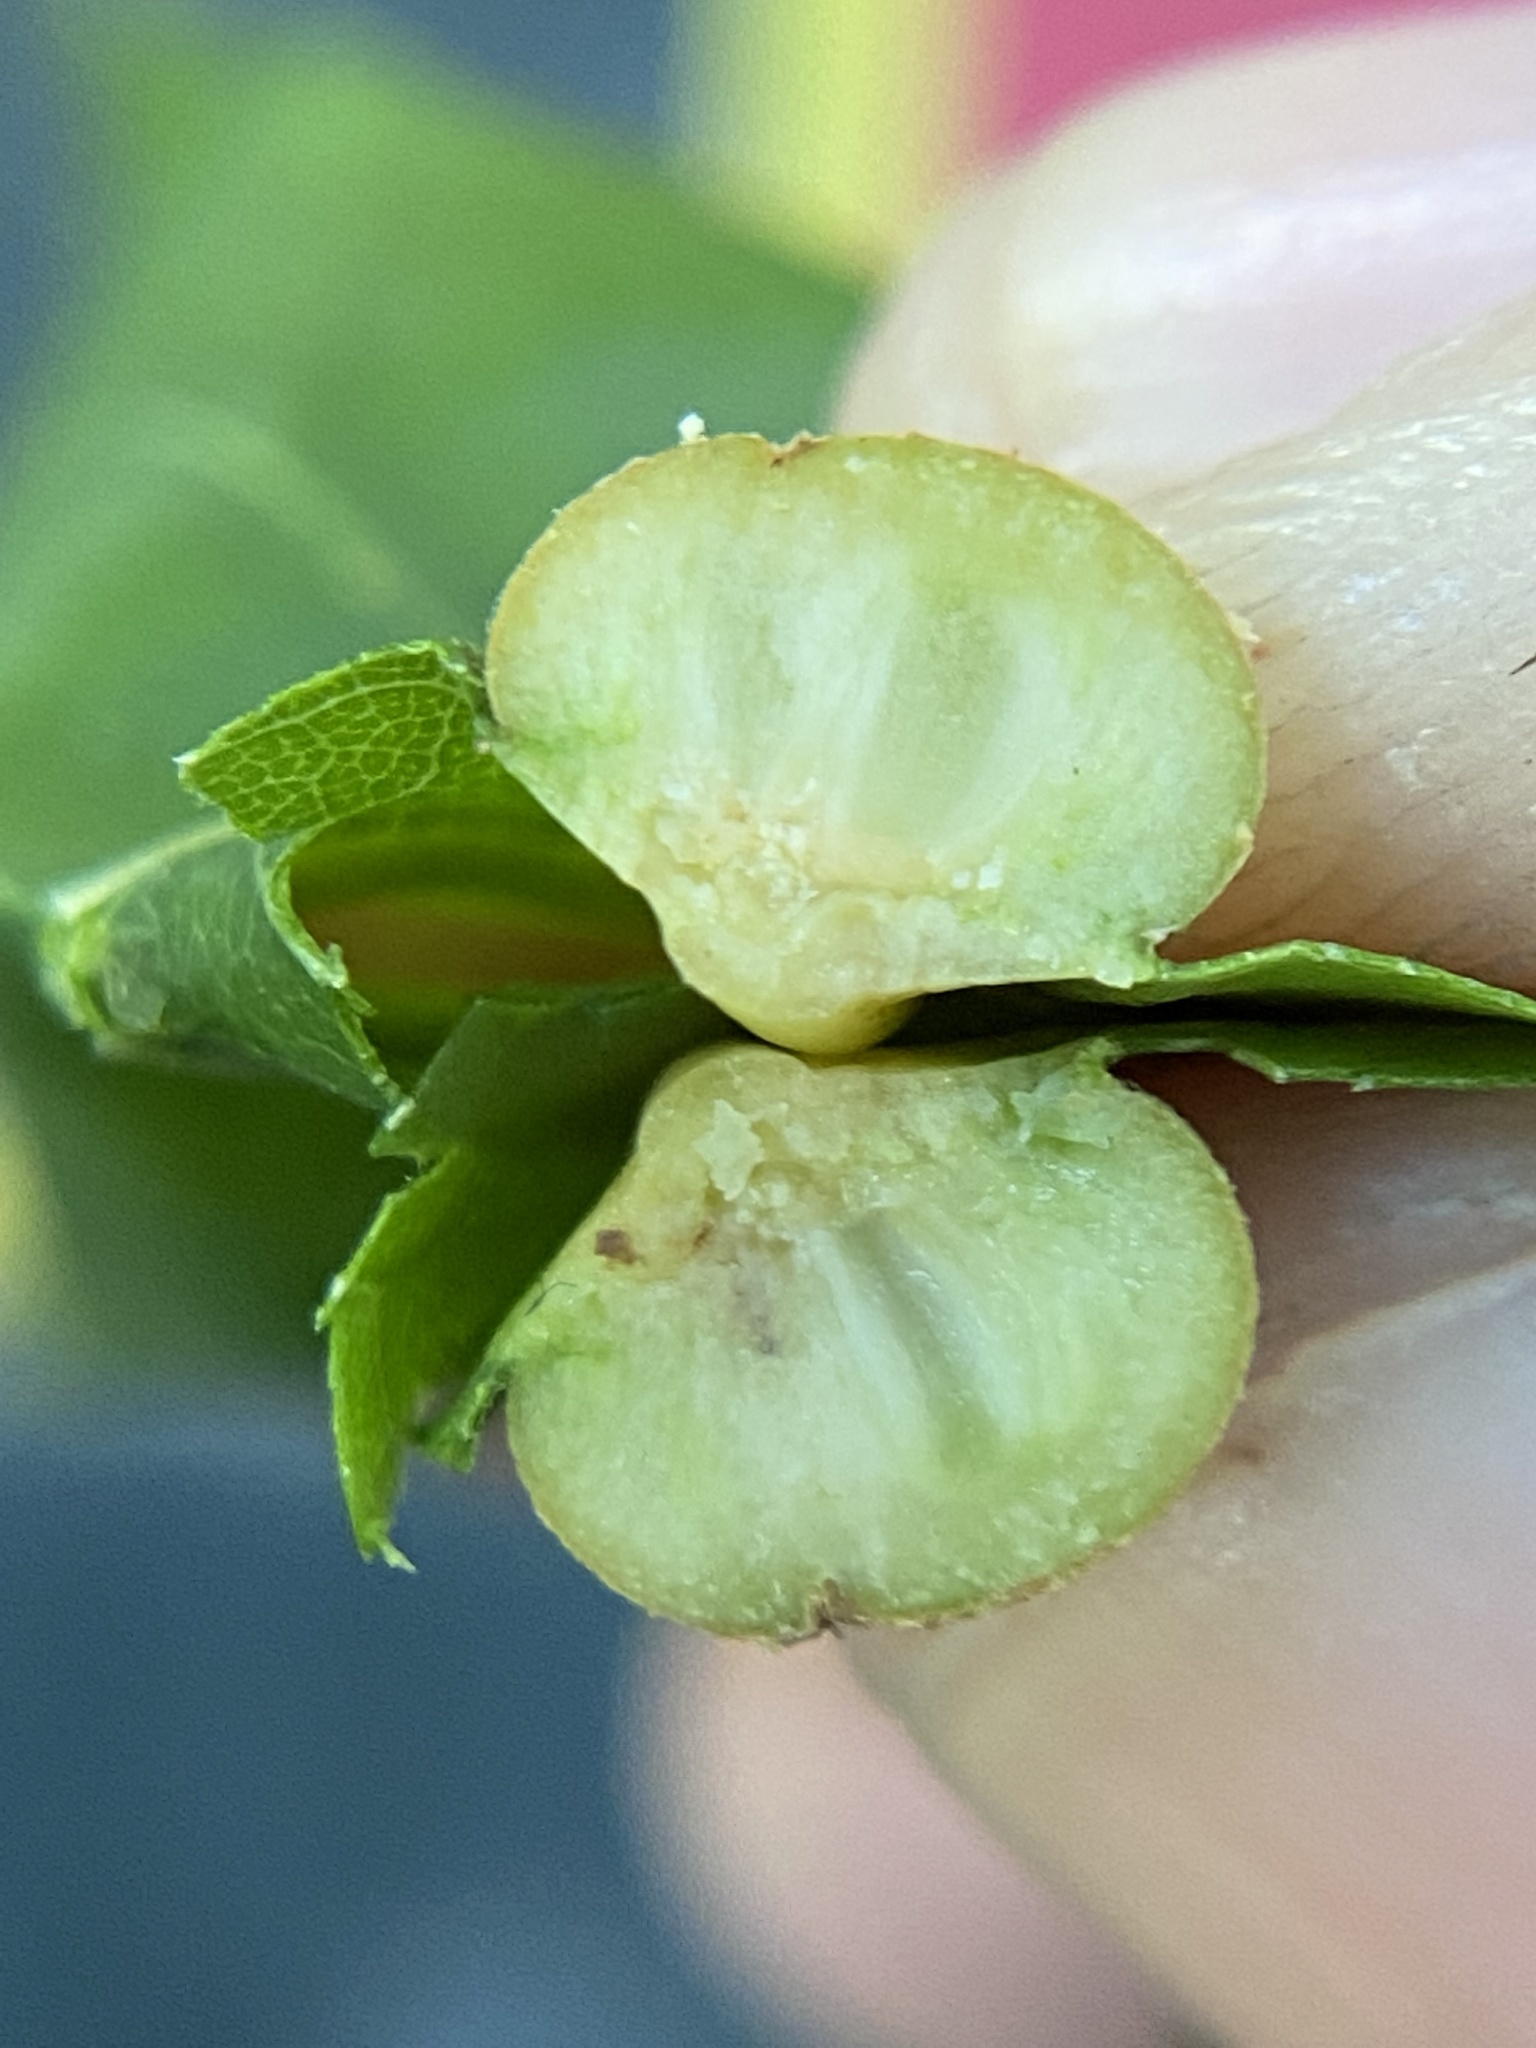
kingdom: Animalia
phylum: Arthropoda
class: Insecta
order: Diptera
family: Cecidomyiidae
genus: Polystepha
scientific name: Polystepha pilulae
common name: Oak leaf gall midge
